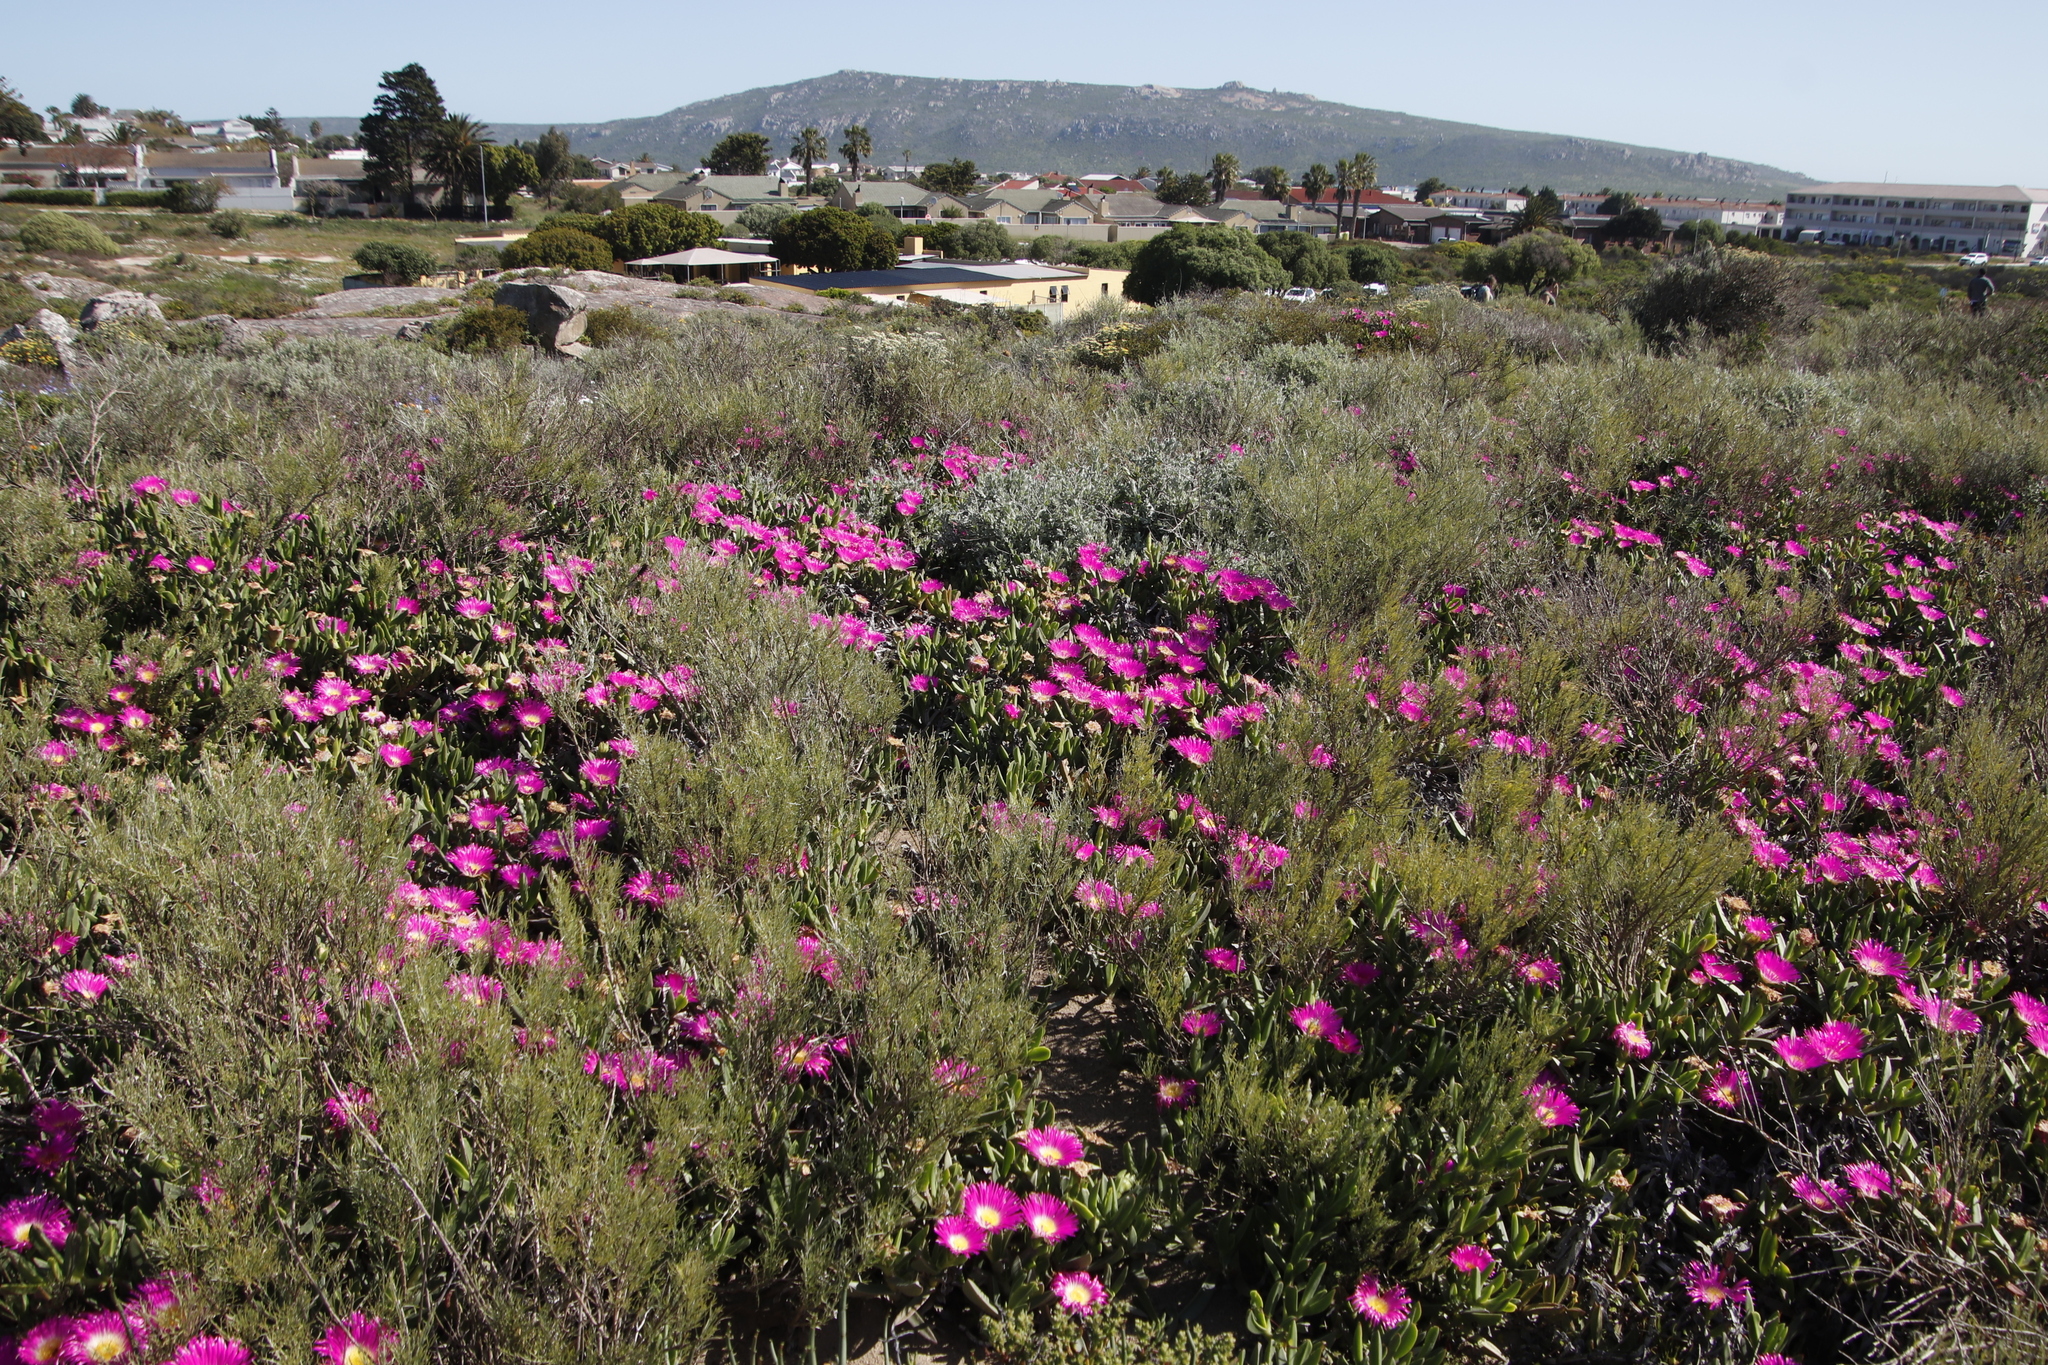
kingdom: Plantae
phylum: Tracheophyta
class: Magnoliopsida
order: Caryophyllales
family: Aizoaceae
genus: Carpobrotus
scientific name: Carpobrotus quadrifidus
